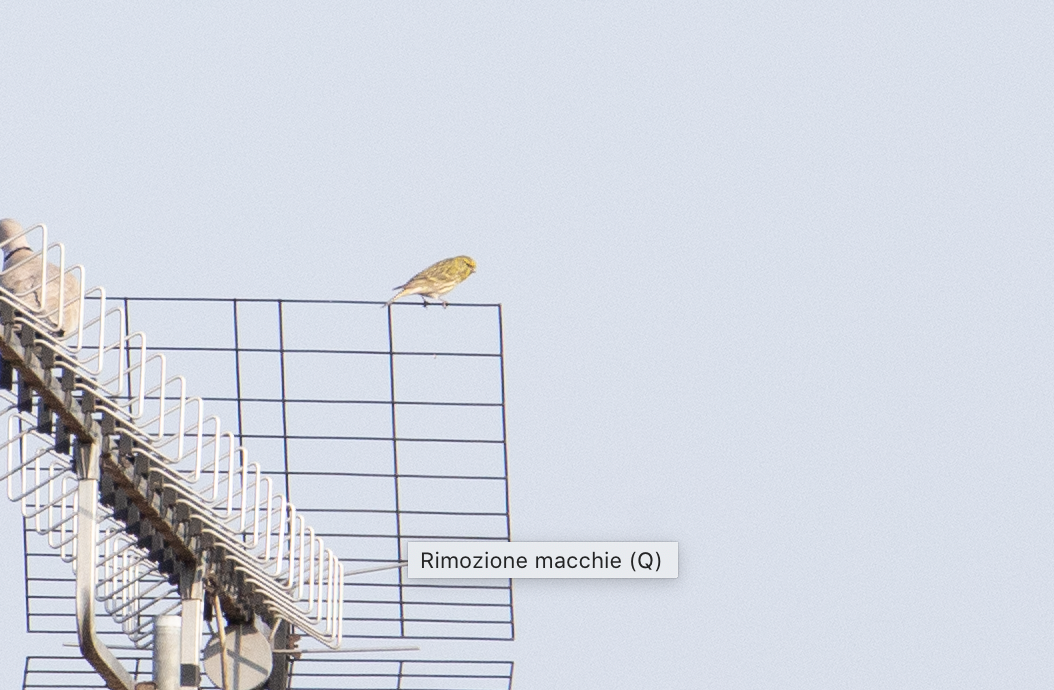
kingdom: Animalia
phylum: Chordata
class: Aves
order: Passeriformes
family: Fringillidae
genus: Serinus
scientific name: Serinus serinus
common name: European serin
